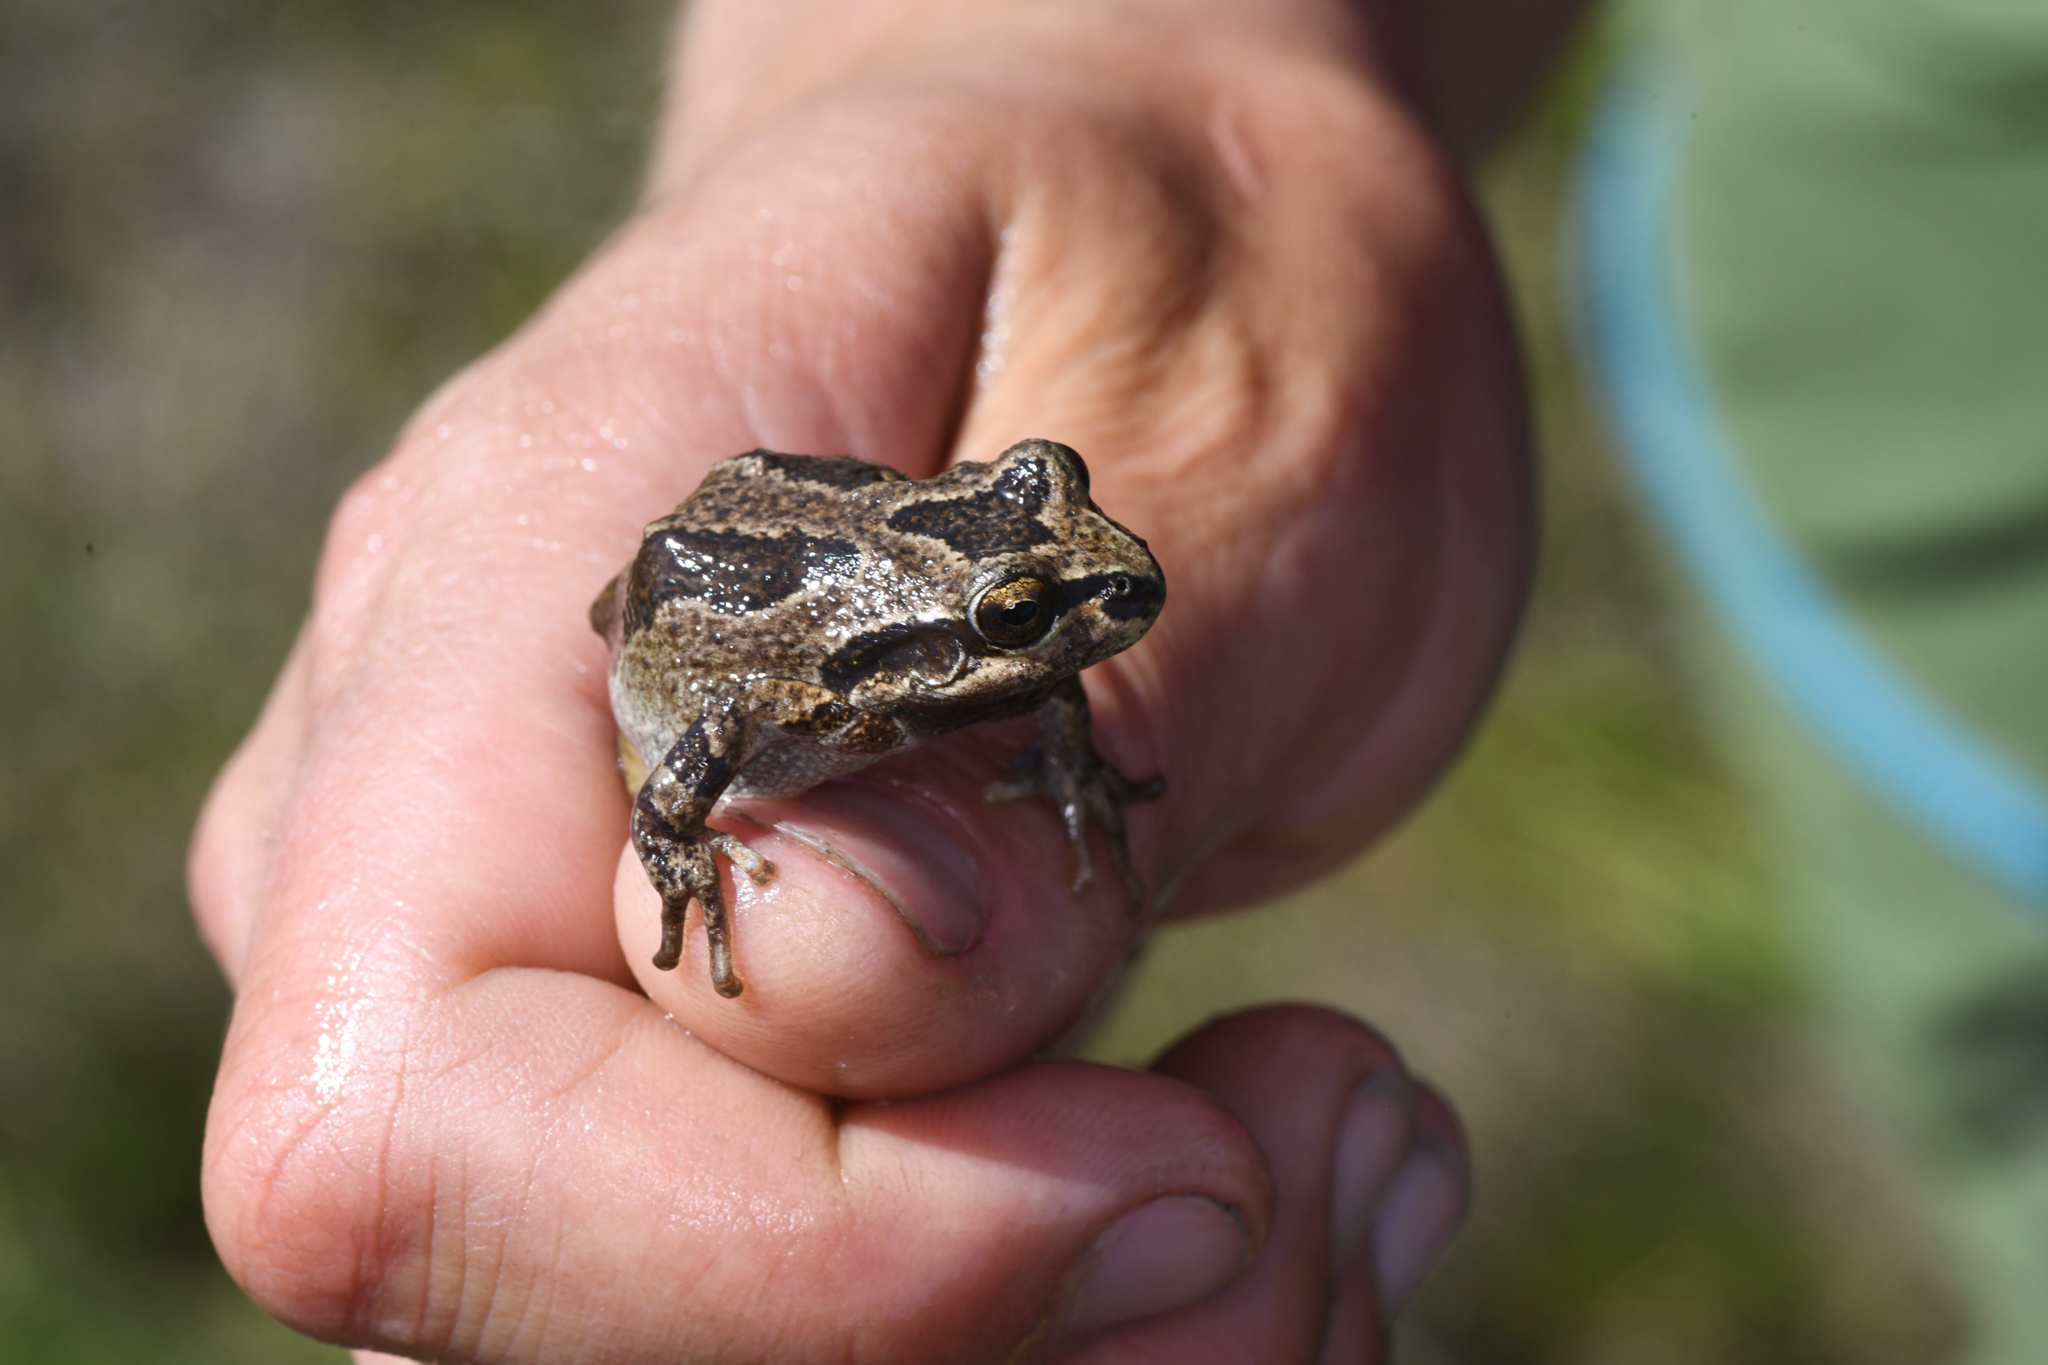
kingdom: Animalia
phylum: Chordata
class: Amphibia
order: Anura
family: Hylidae
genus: Pseudacris
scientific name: Pseudacris regilla
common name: Pacific chorus frog
